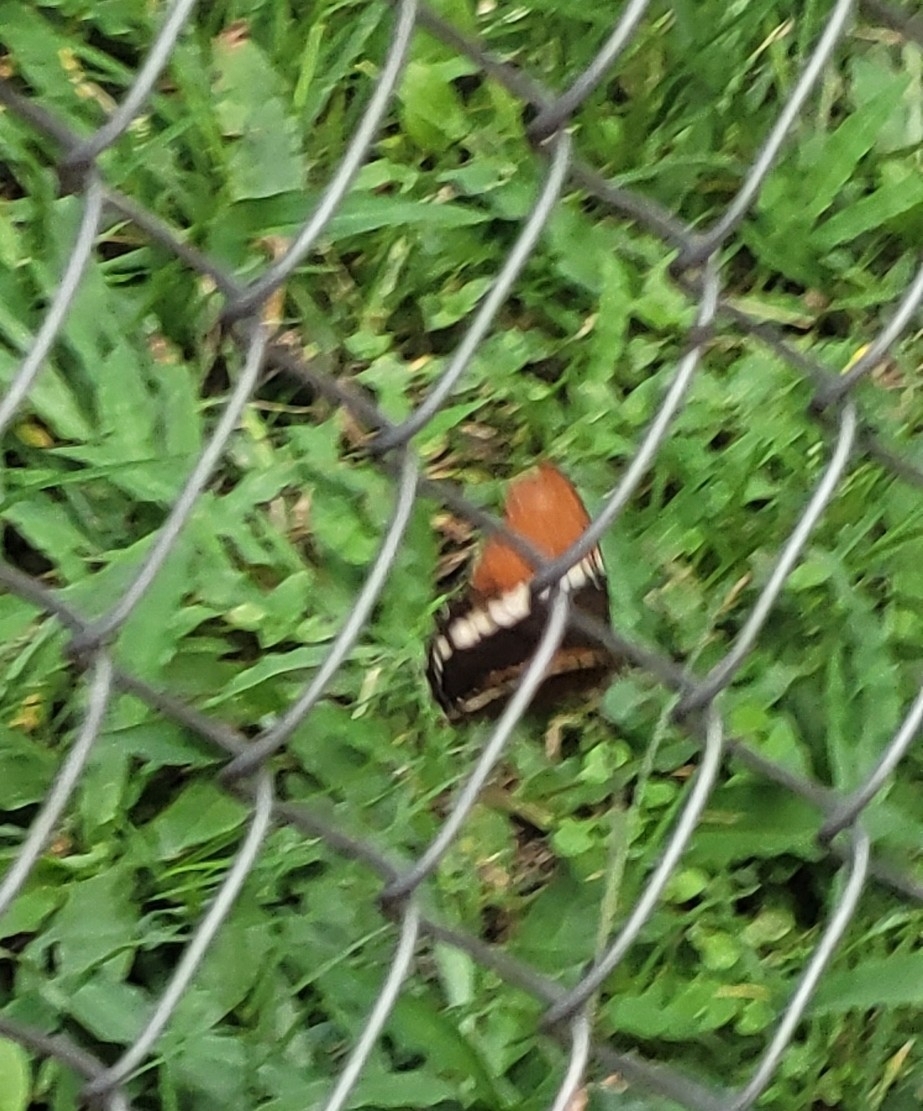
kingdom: Animalia
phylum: Arthropoda
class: Insecta
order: Lepidoptera
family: Nymphalidae
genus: Siproeta
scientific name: Siproeta epaphus
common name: Rusty-tipped page
